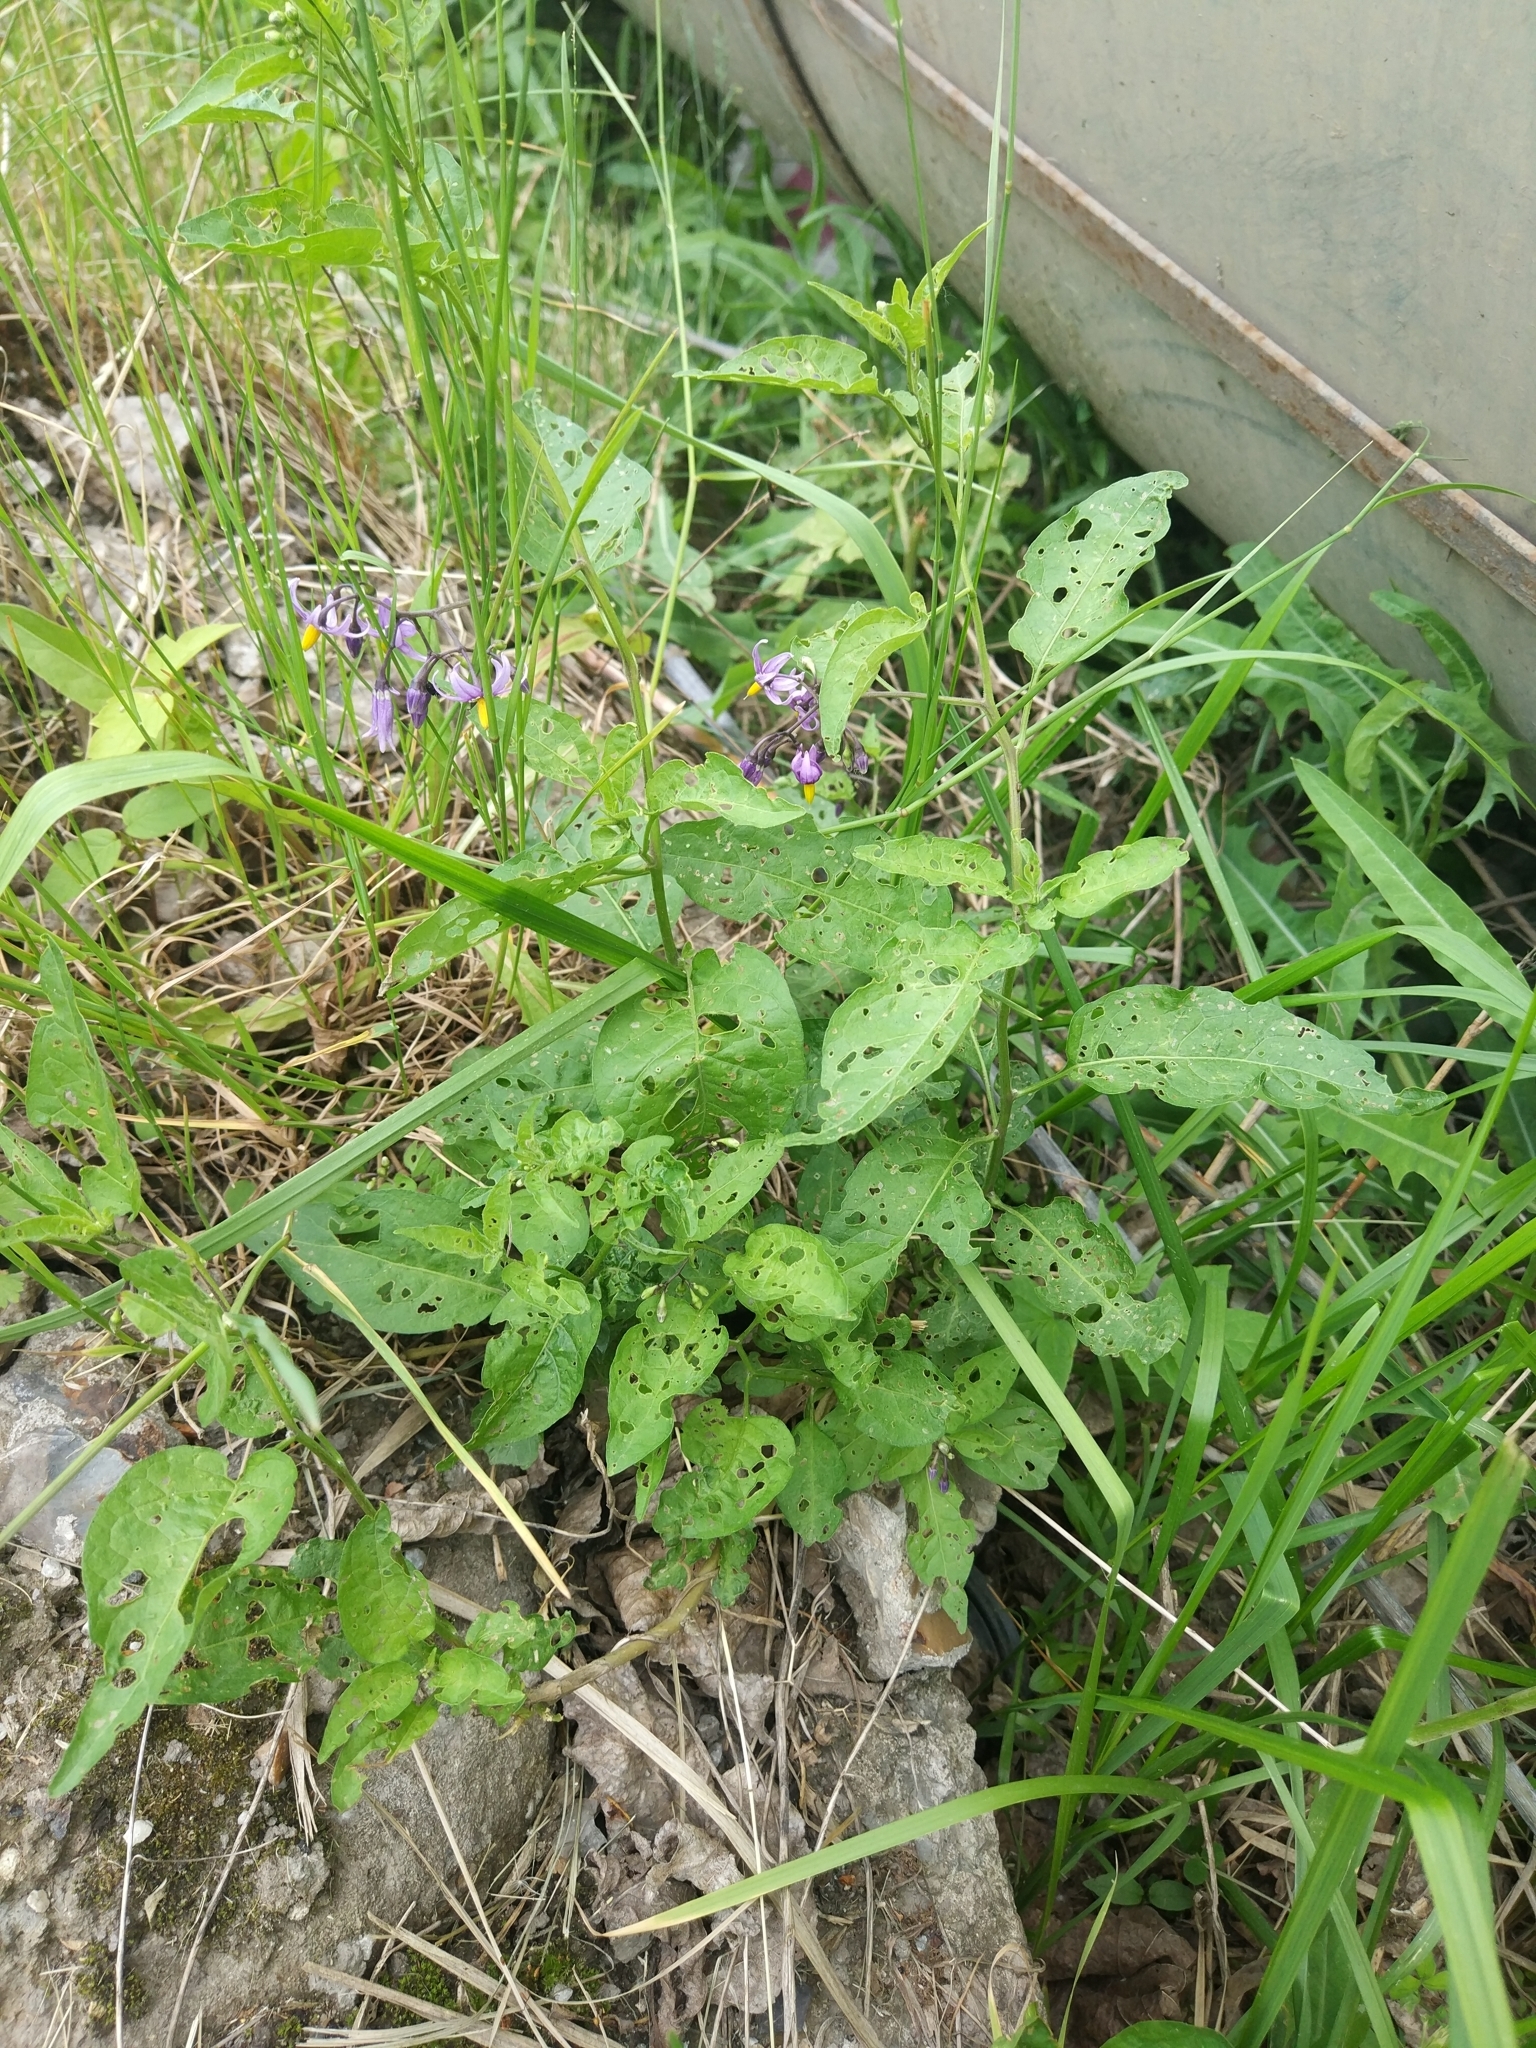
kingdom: Plantae
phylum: Tracheophyta
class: Magnoliopsida
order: Solanales
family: Solanaceae
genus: Solanum
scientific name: Solanum dulcamara
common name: Climbing nightshade
